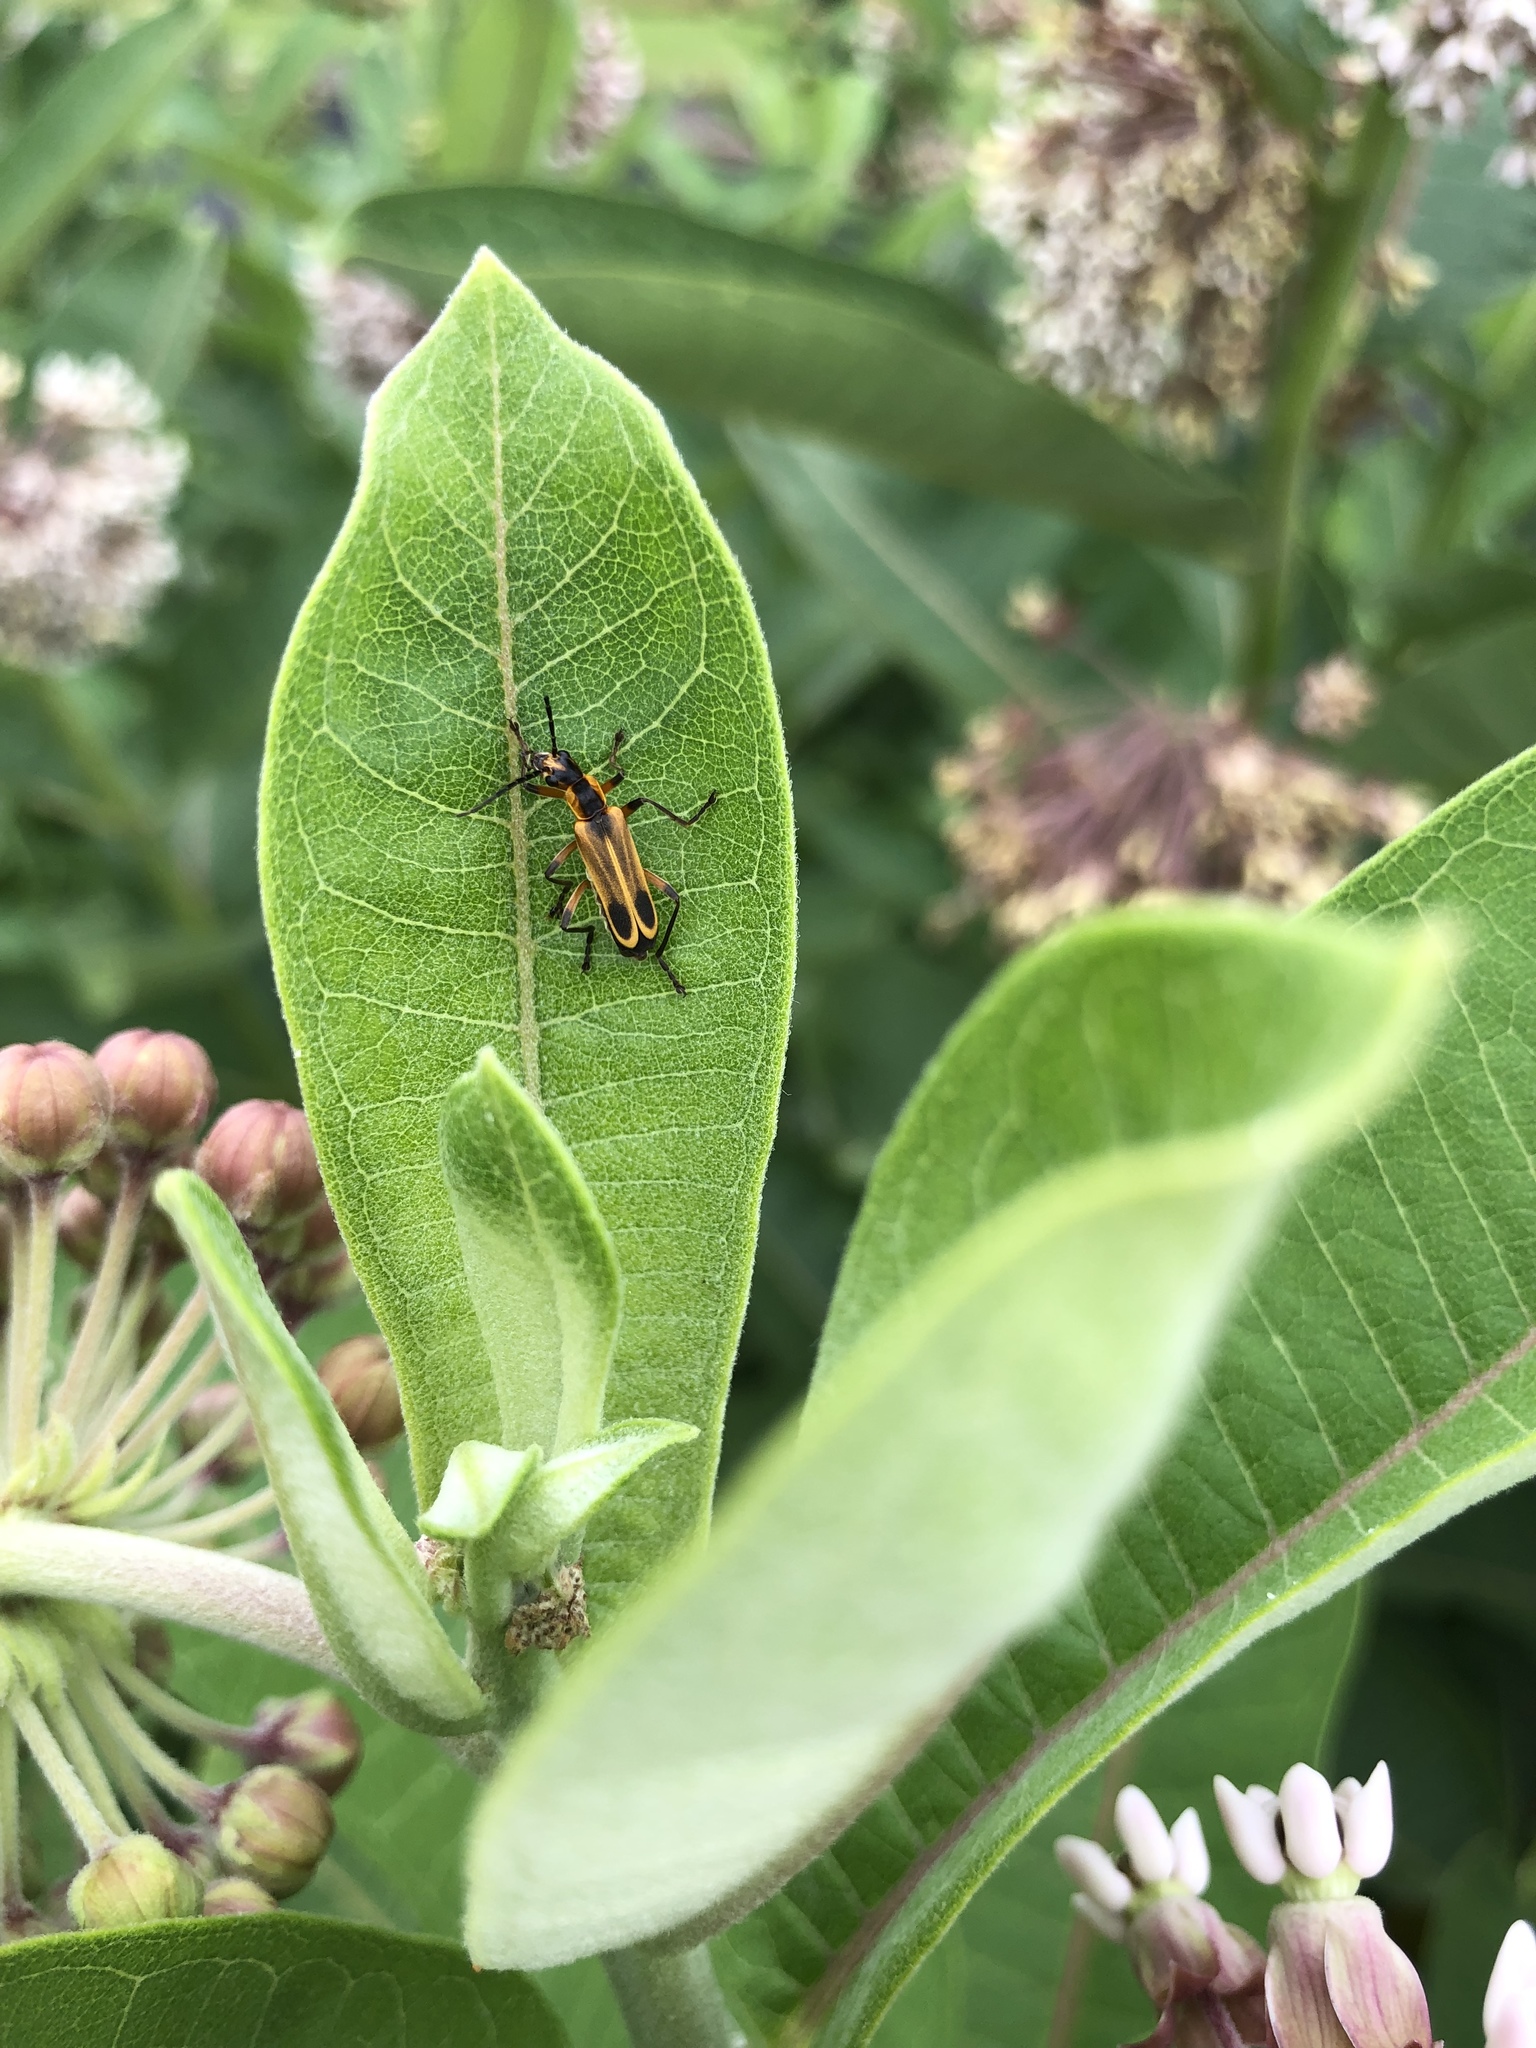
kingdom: Animalia
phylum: Arthropoda
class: Insecta
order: Coleoptera
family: Cantharidae
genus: Chauliognathus
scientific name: Chauliognathus marginatus
